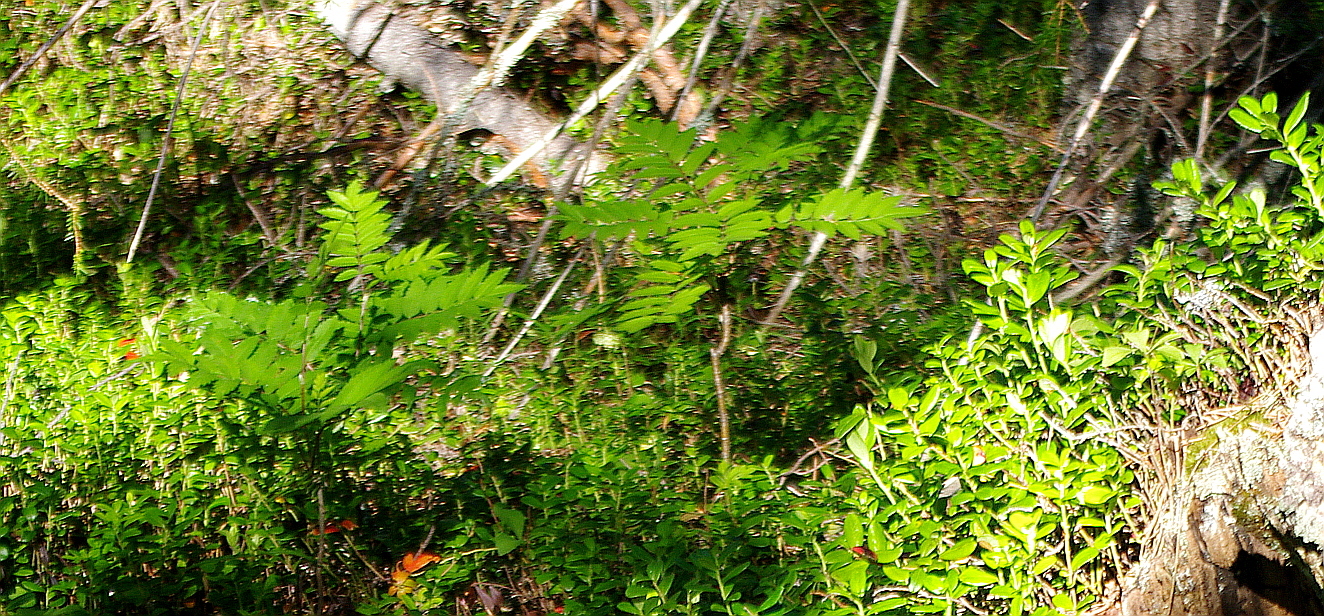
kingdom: Plantae
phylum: Tracheophyta
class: Magnoliopsida
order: Rosales
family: Rosaceae
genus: Sorbus
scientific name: Sorbus aucuparia
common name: Rowan
